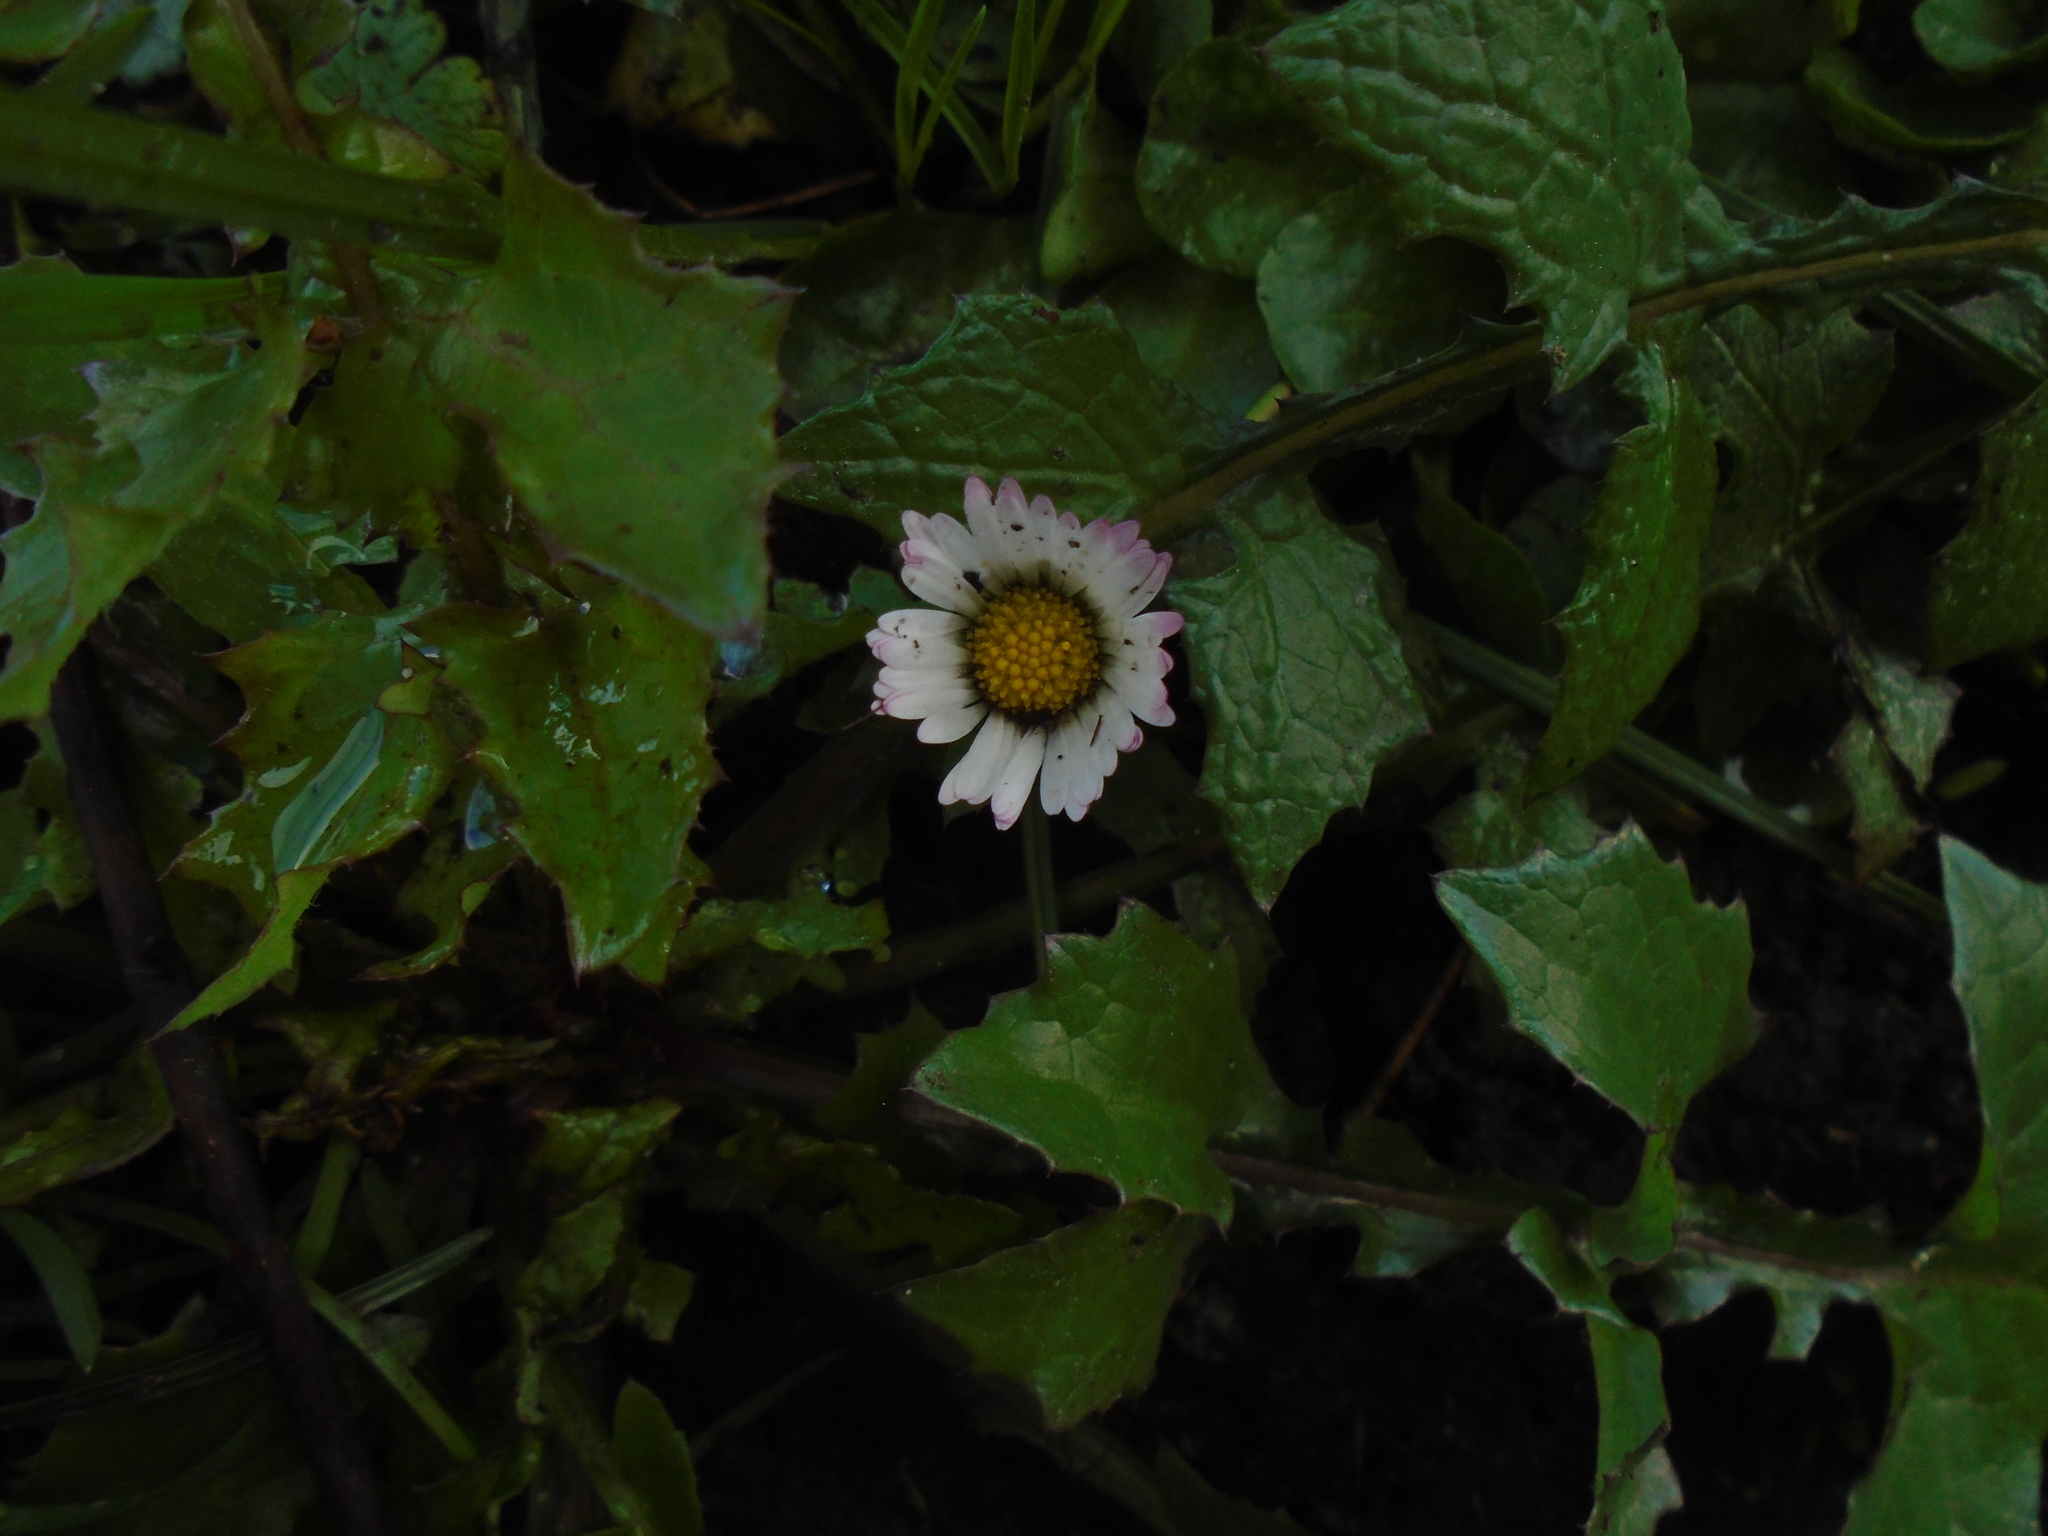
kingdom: Plantae
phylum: Tracheophyta
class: Magnoliopsida
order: Asterales
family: Asteraceae
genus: Bellis
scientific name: Bellis perennis
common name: Lawndaisy
